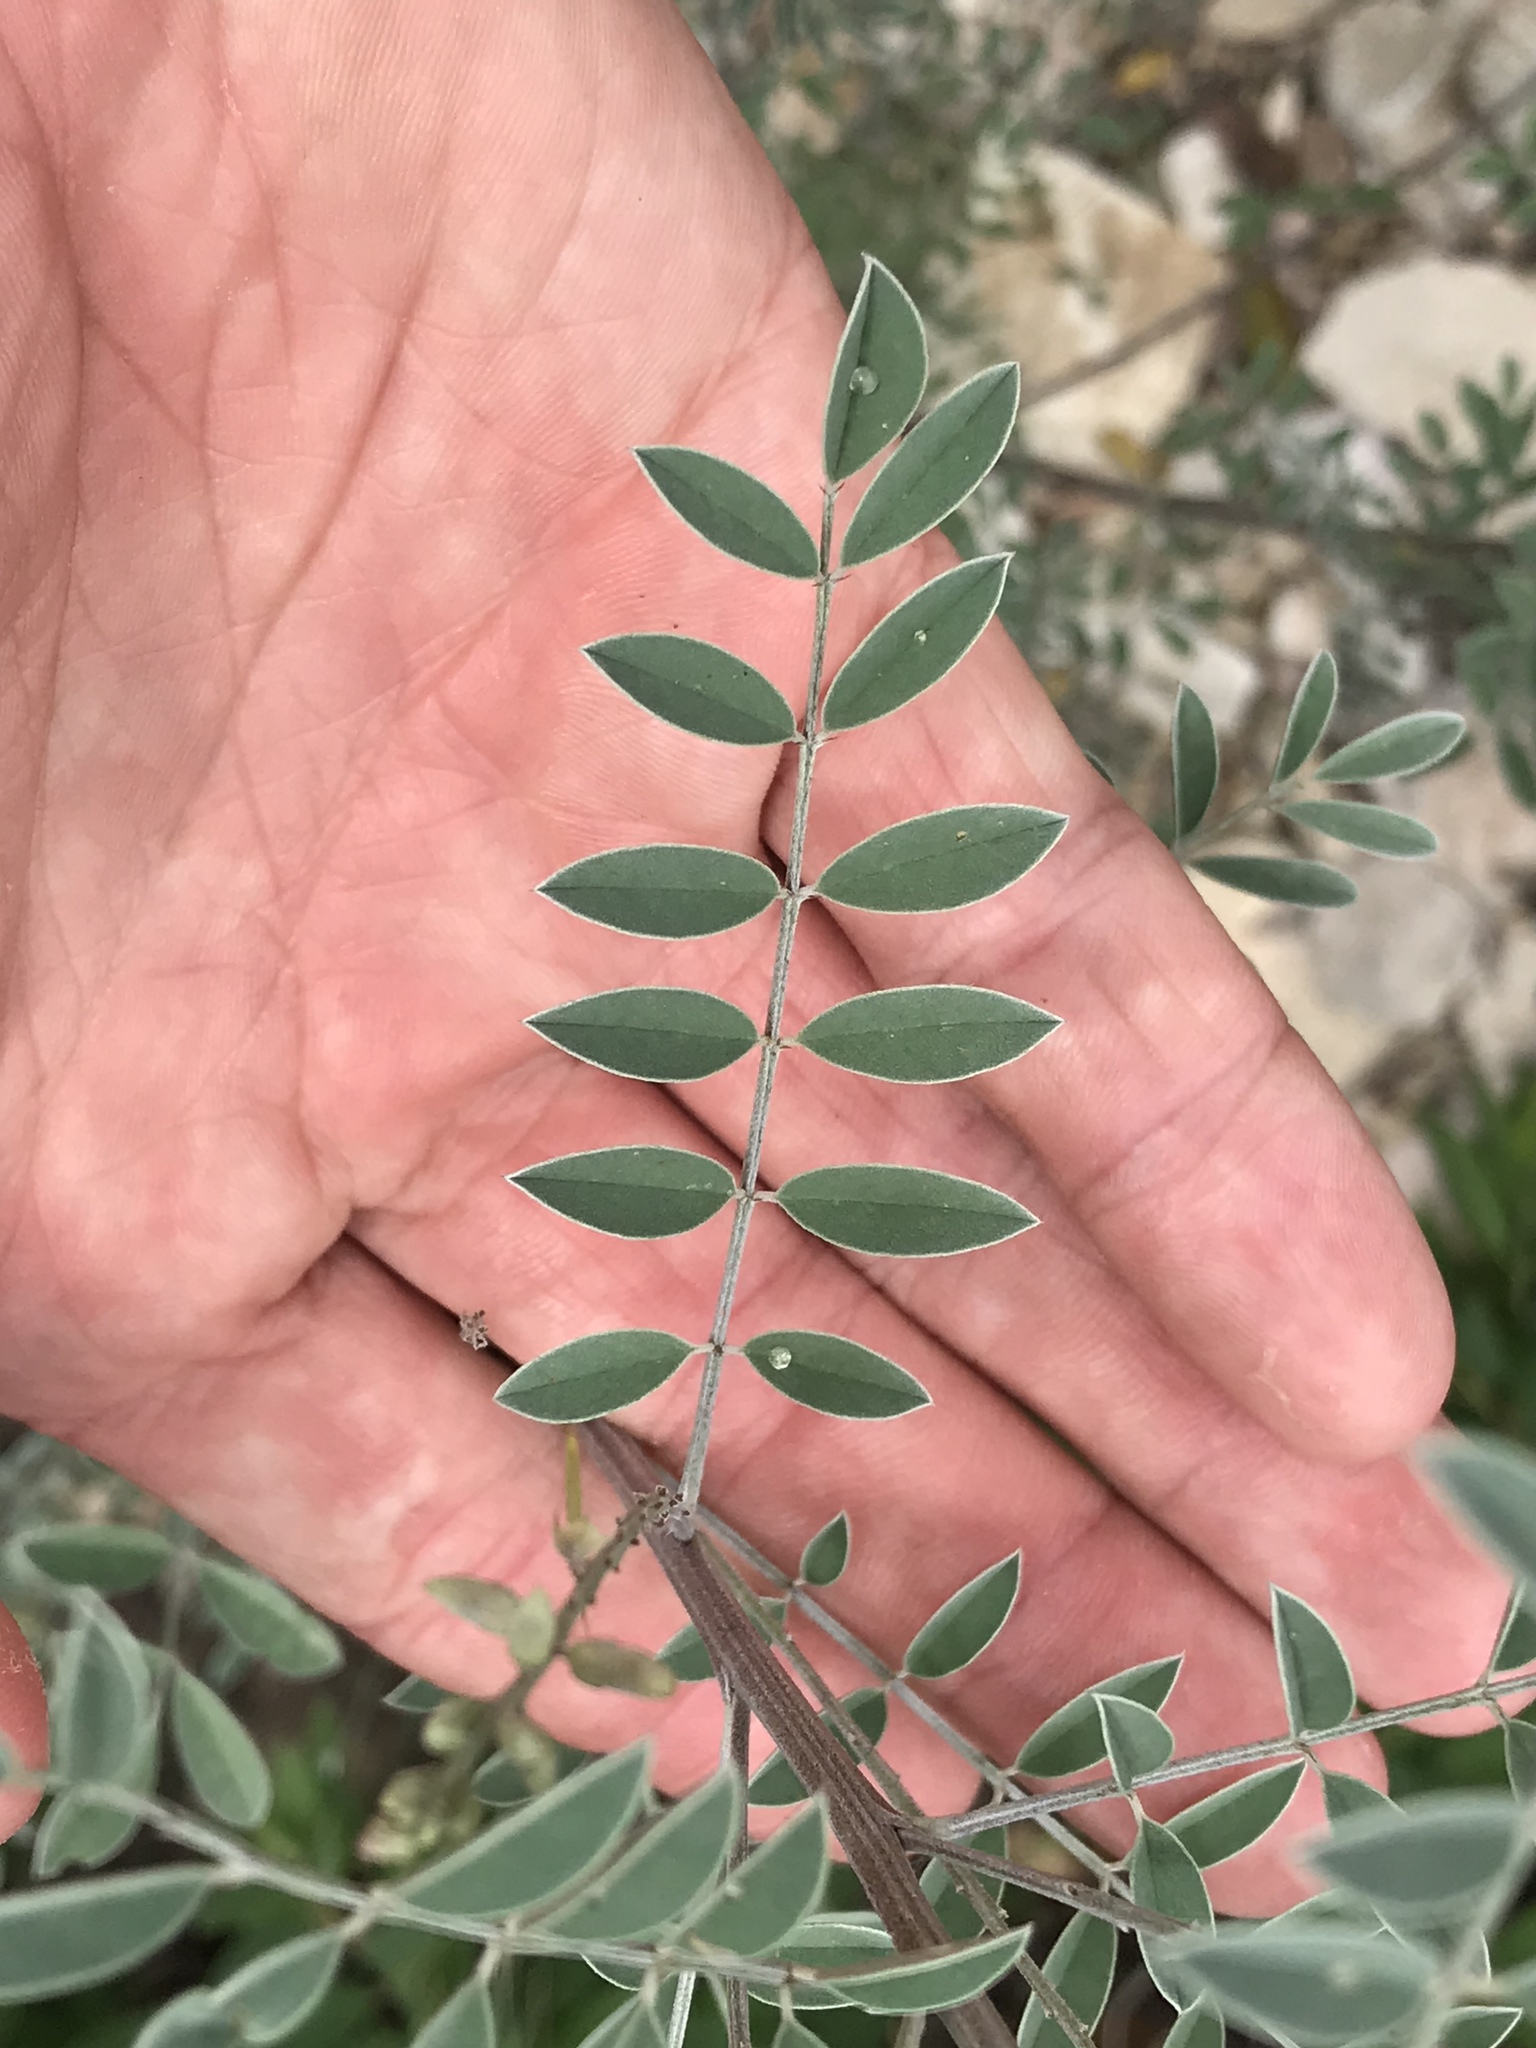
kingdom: Plantae
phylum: Tracheophyta
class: Magnoliopsida
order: Fabales
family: Fabaceae
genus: Indigofera
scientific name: Indigofera lindheimeriana
